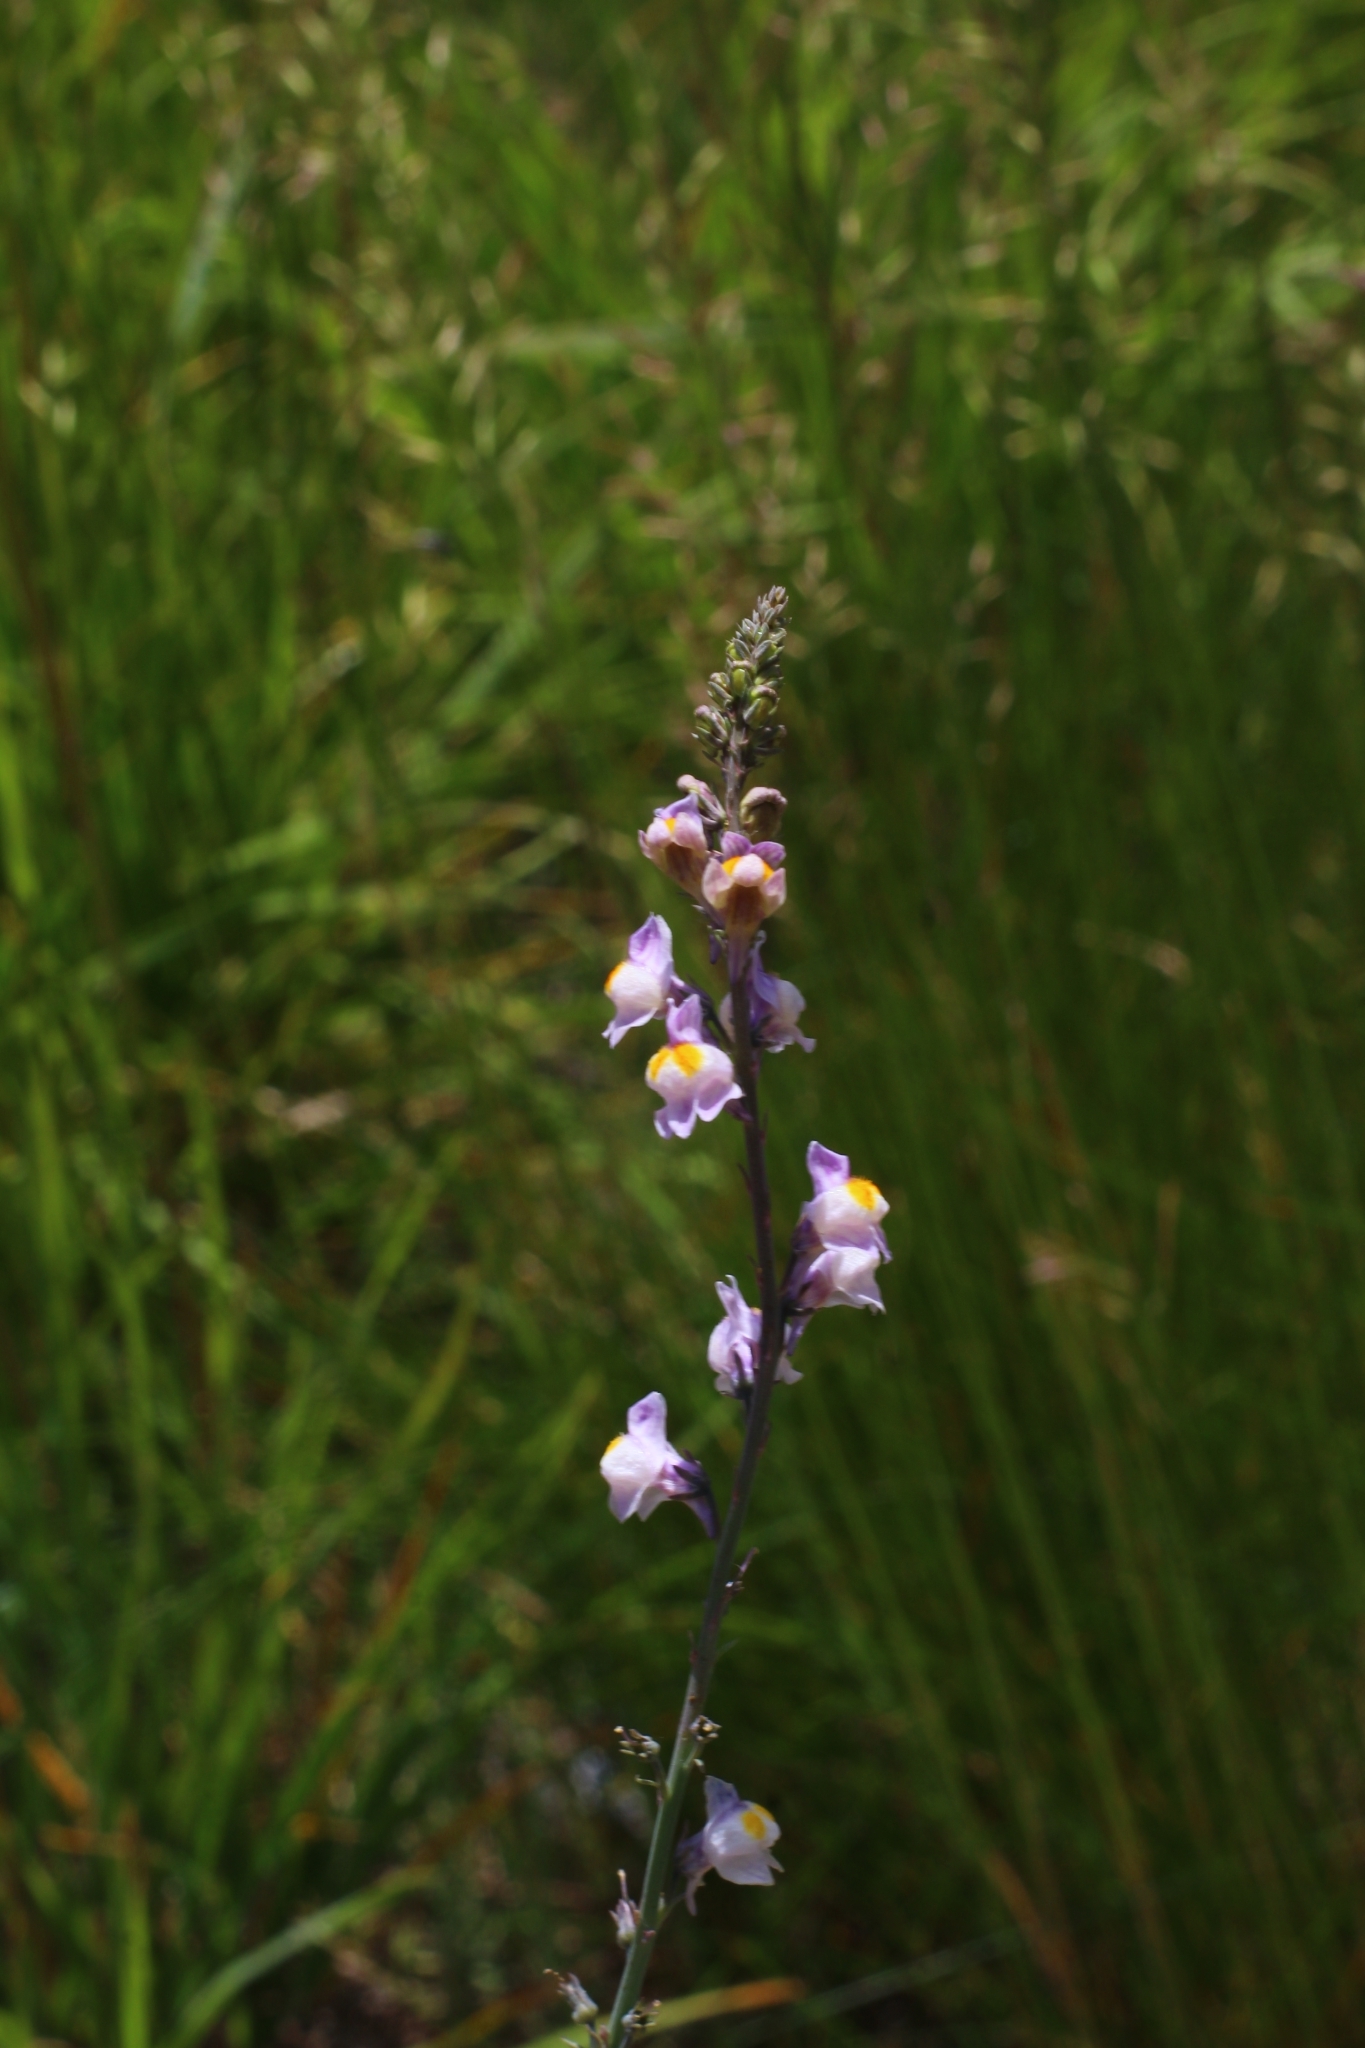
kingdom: Plantae
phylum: Tracheophyta
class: Magnoliopsida
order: Lamiales
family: Plantaginaceae
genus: Linaria
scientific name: Linaria repens
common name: Pale toadflax
